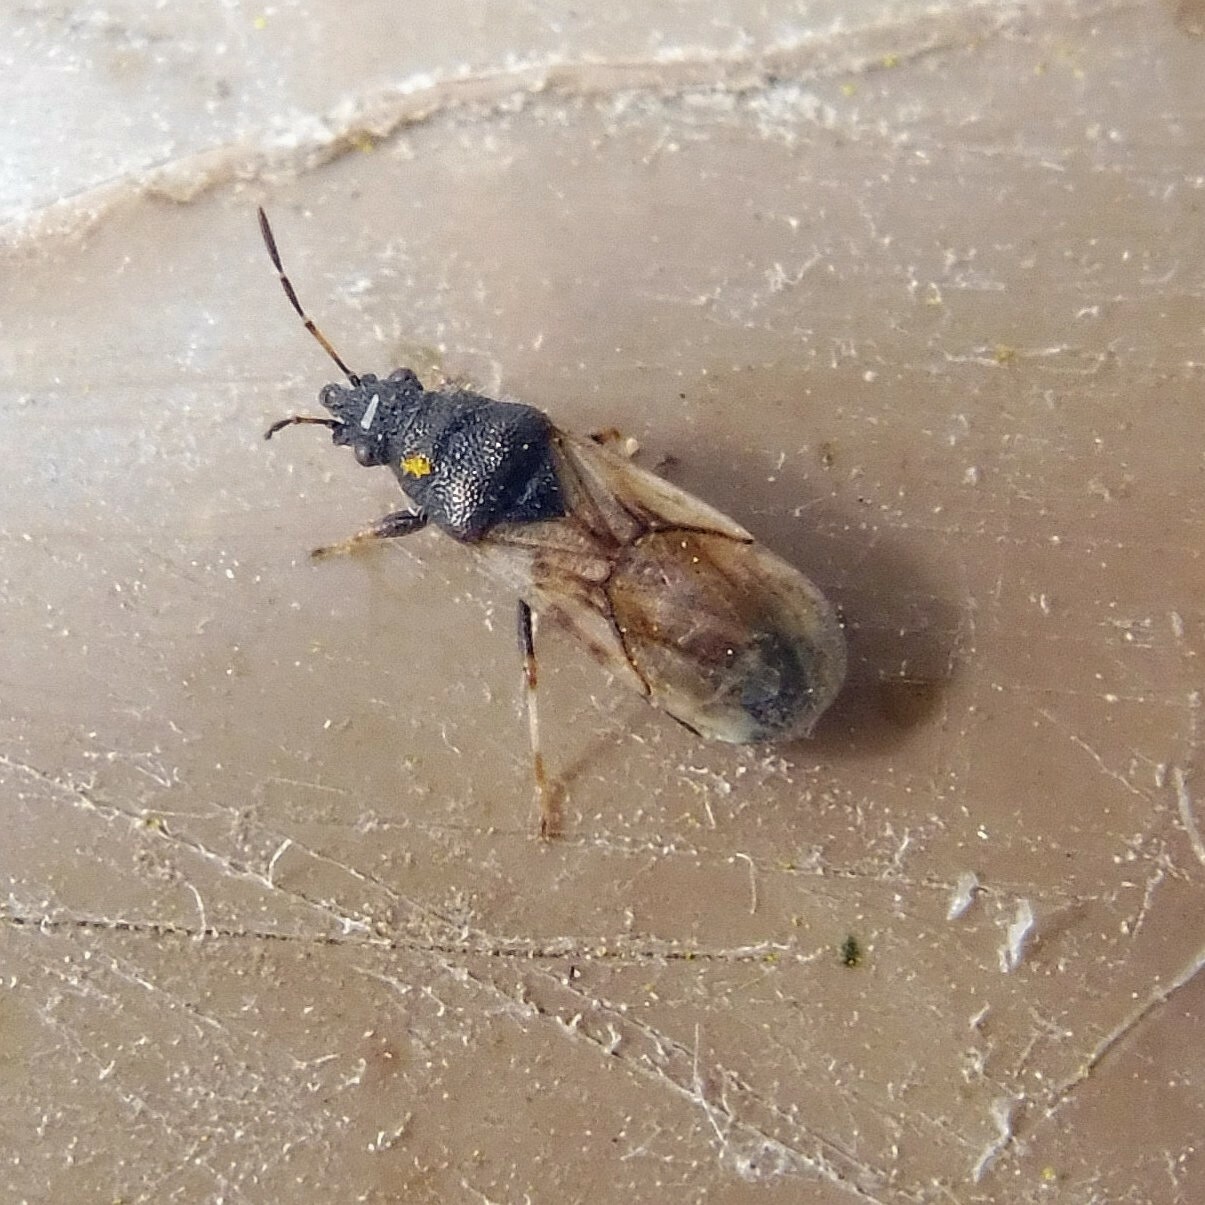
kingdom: Animalia
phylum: Arthropoda
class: Insecta
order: Hemiptera
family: Oxycarenidae
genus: Metopoplax
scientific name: Metopoplax ditomoides
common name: Seed bug
